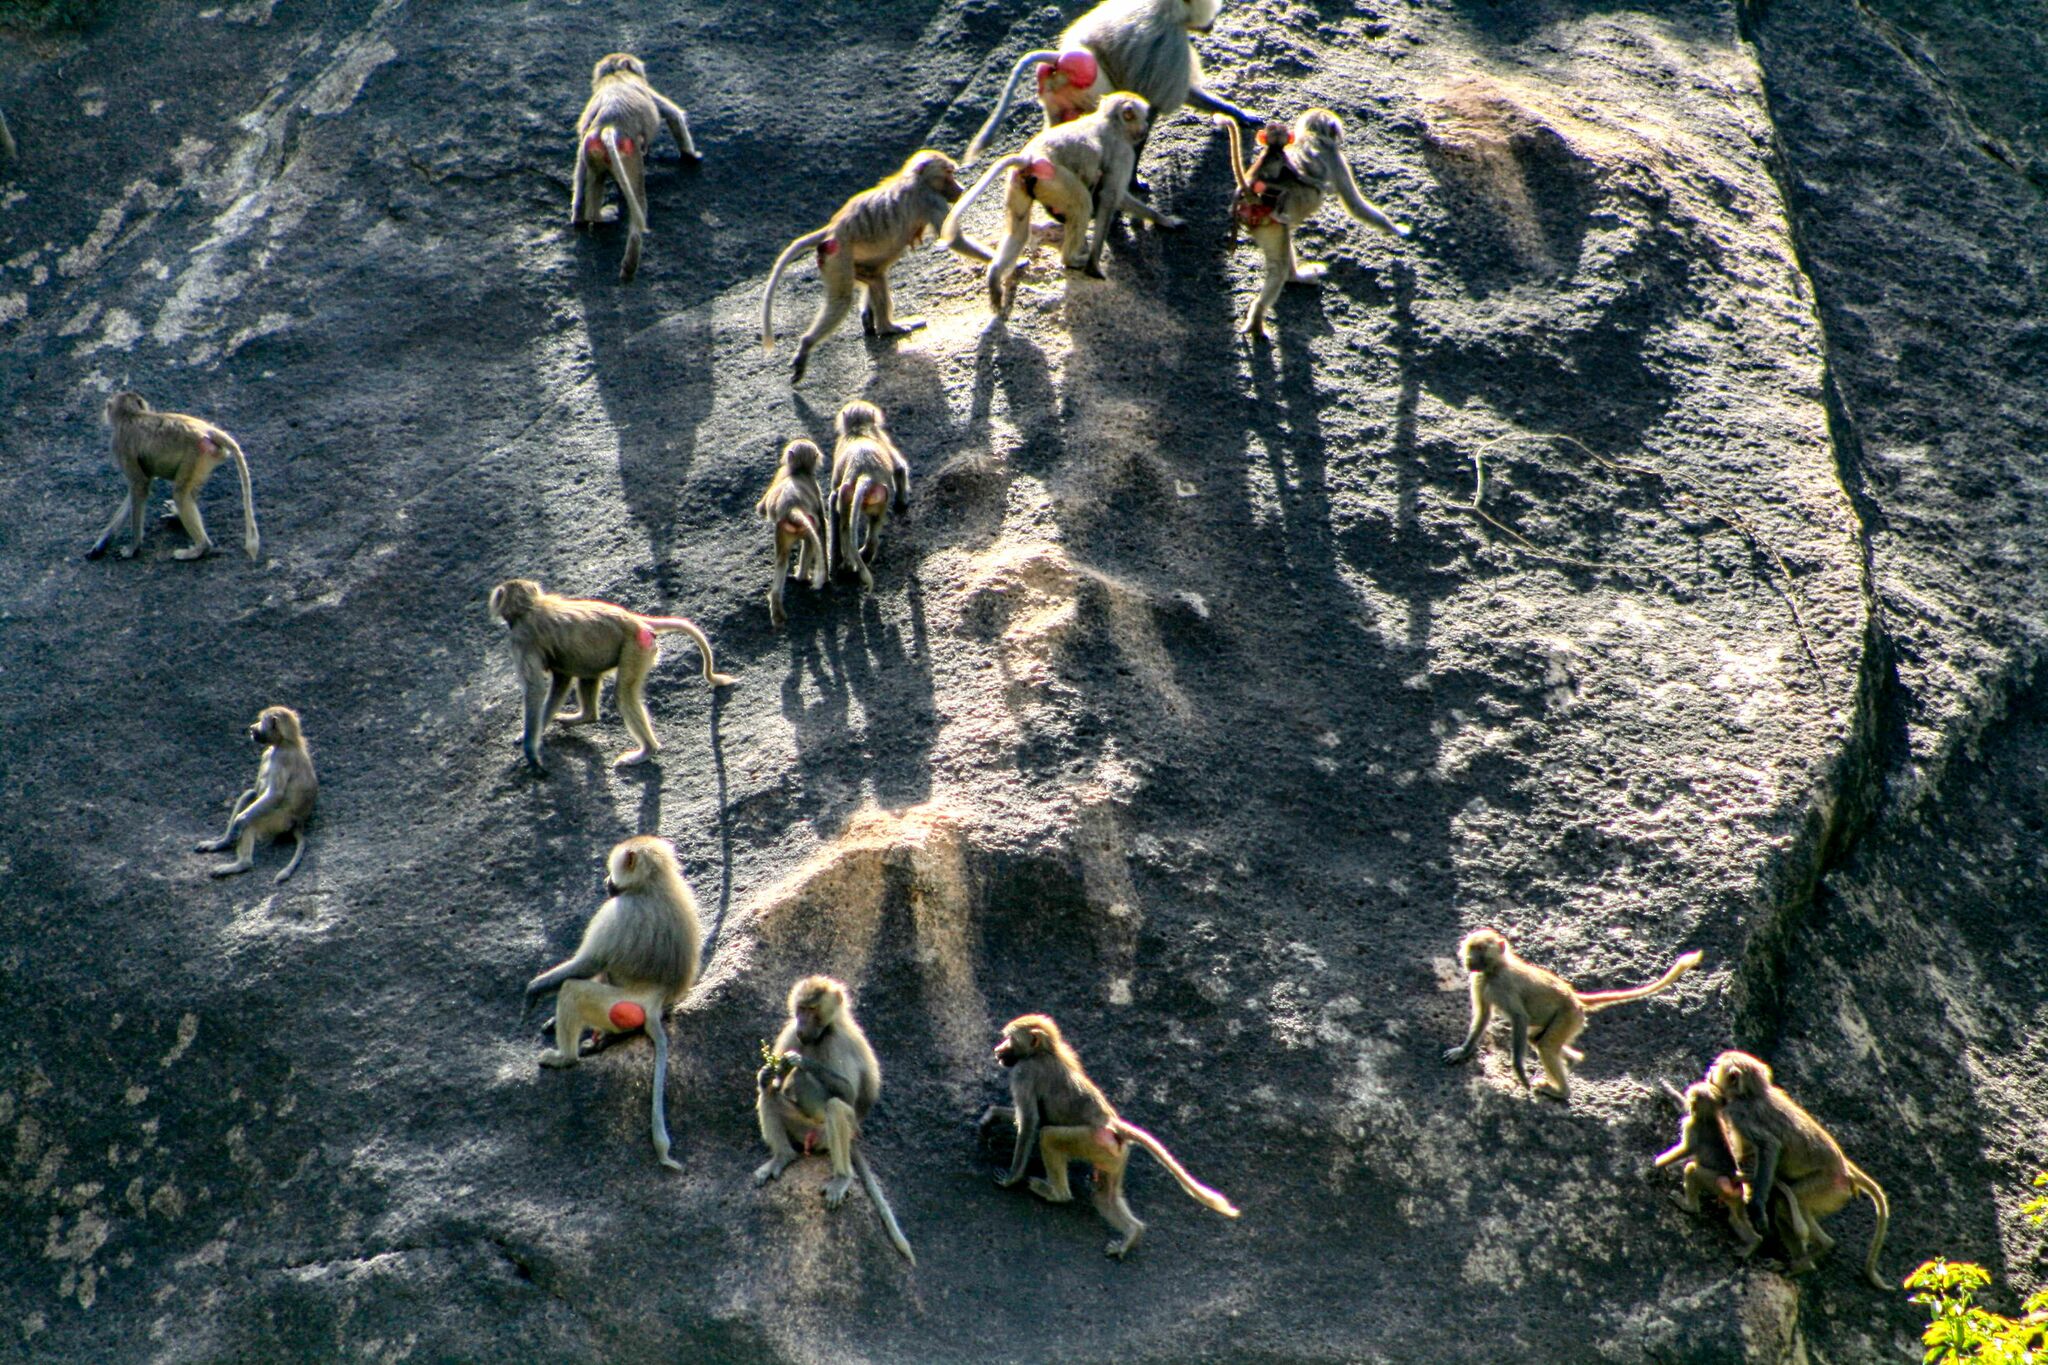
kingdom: Animalia
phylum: Chordata
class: Mammalia
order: Primates
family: Cercopithecidae
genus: Papio
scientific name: Papio hamadryas
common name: Hamadryas baboon
